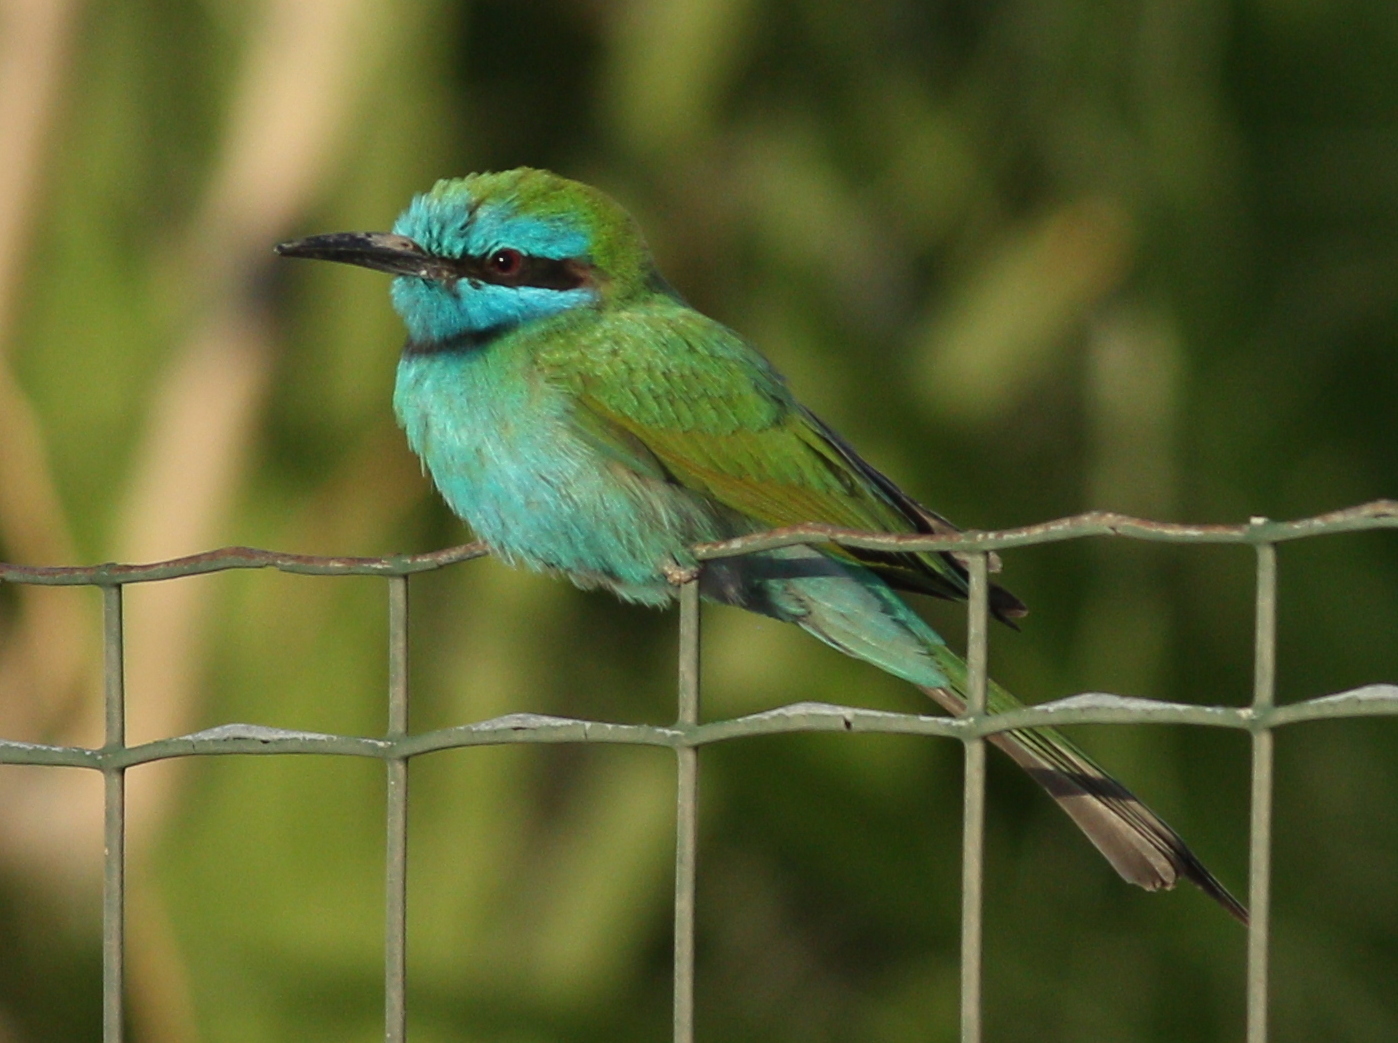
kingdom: Animalia
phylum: Chordata
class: Aves
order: Coraciiformes
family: Meropidae
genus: Merops
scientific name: Merops cyanophrys
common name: Arabian green bee-eater
